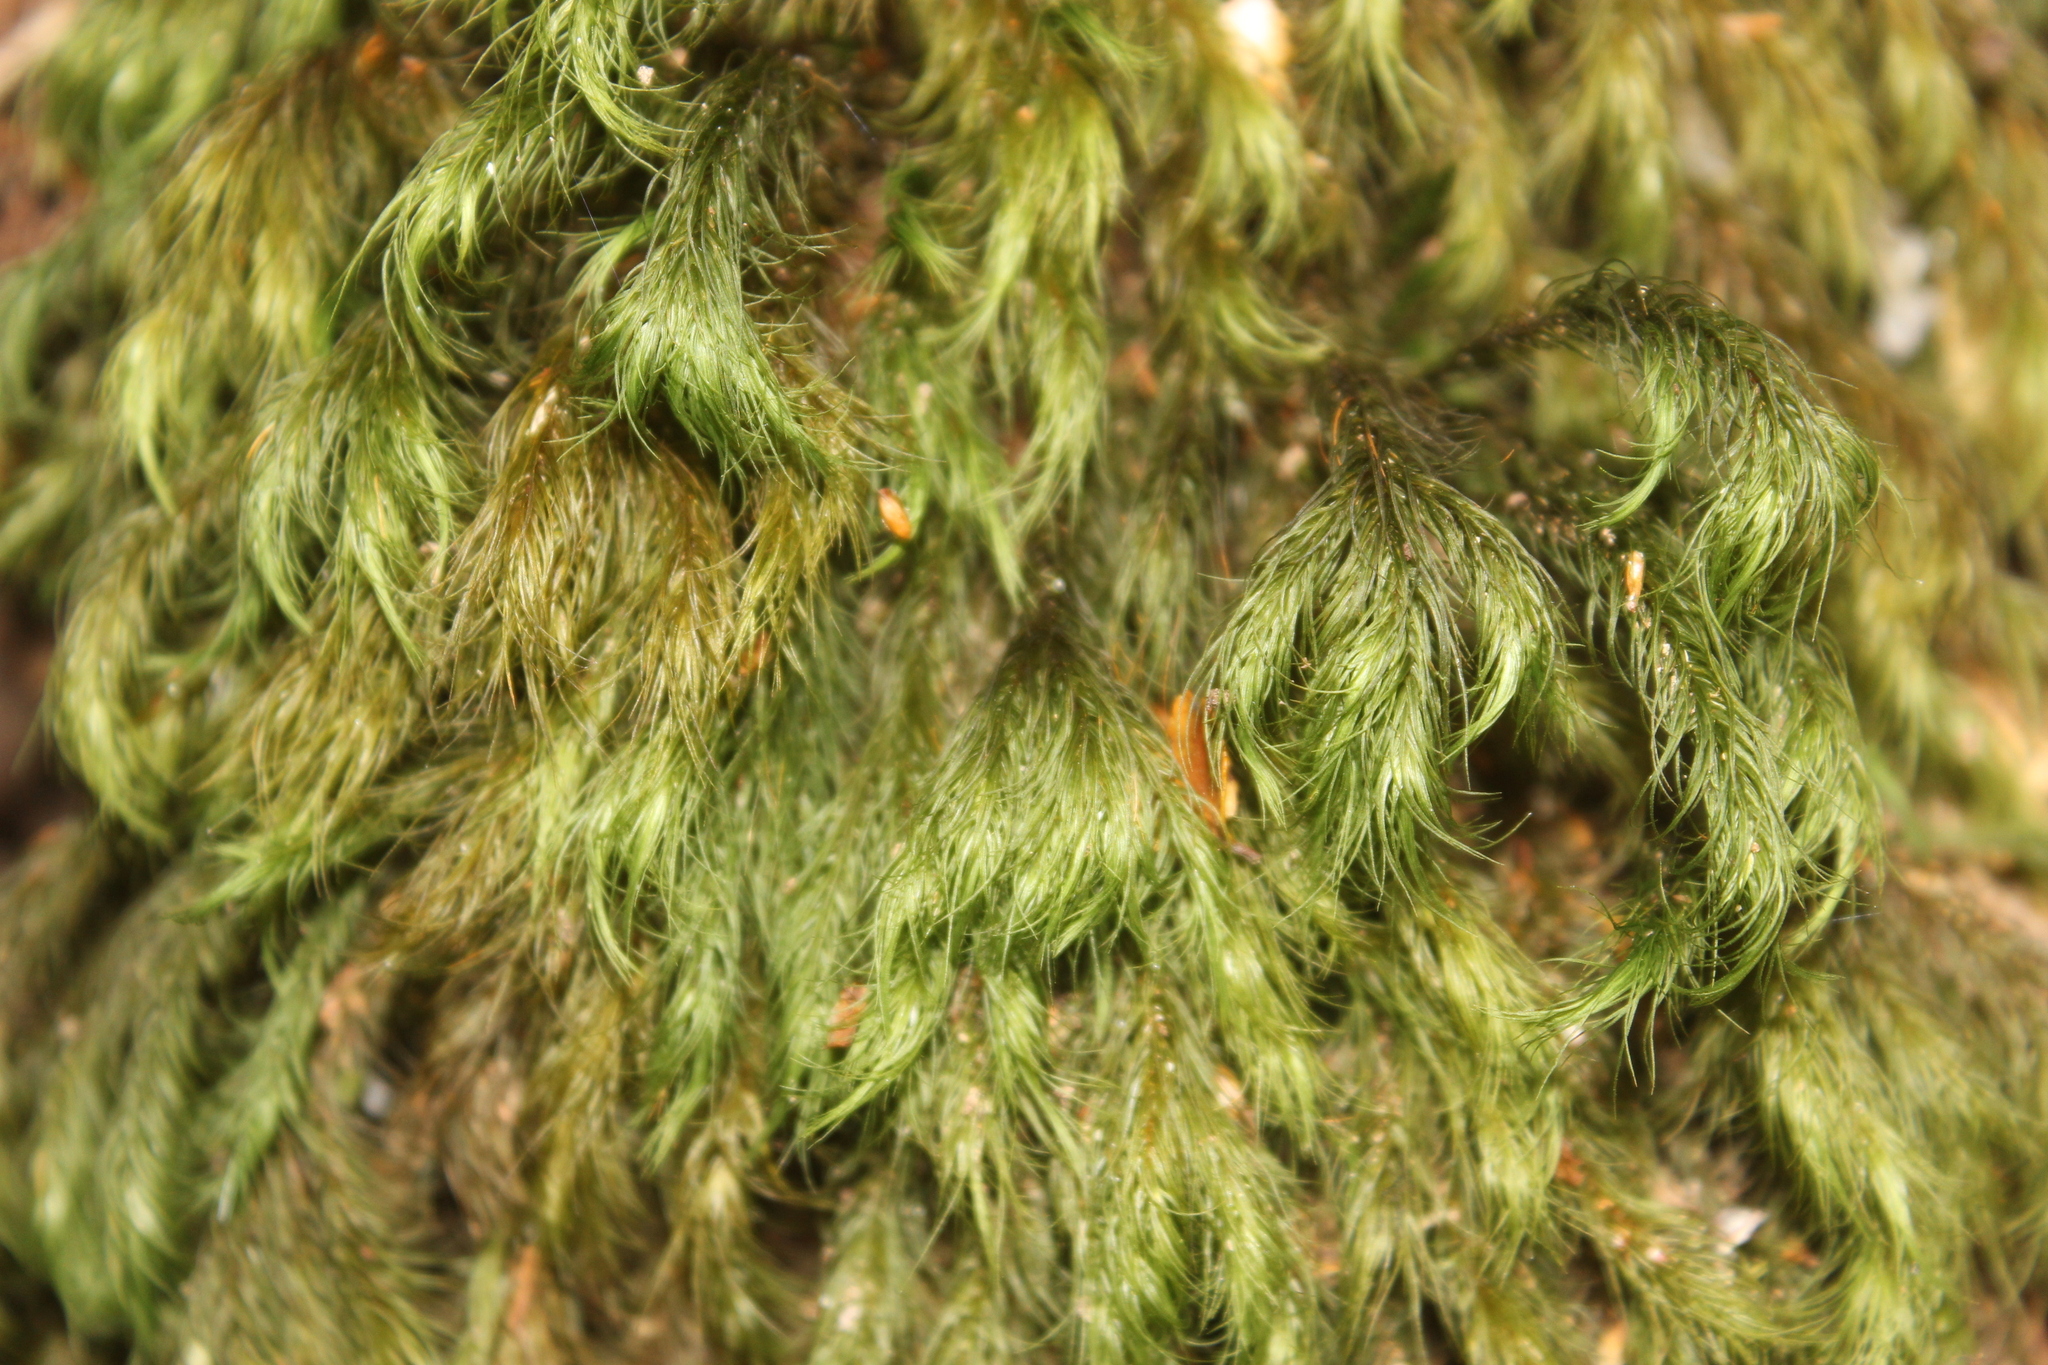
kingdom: Plantae
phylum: Bryophyta
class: Bryopsida
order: Rhizogoniales
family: Calomniaceae
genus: Cryptopodium
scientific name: Cryptopodium bartramioides
